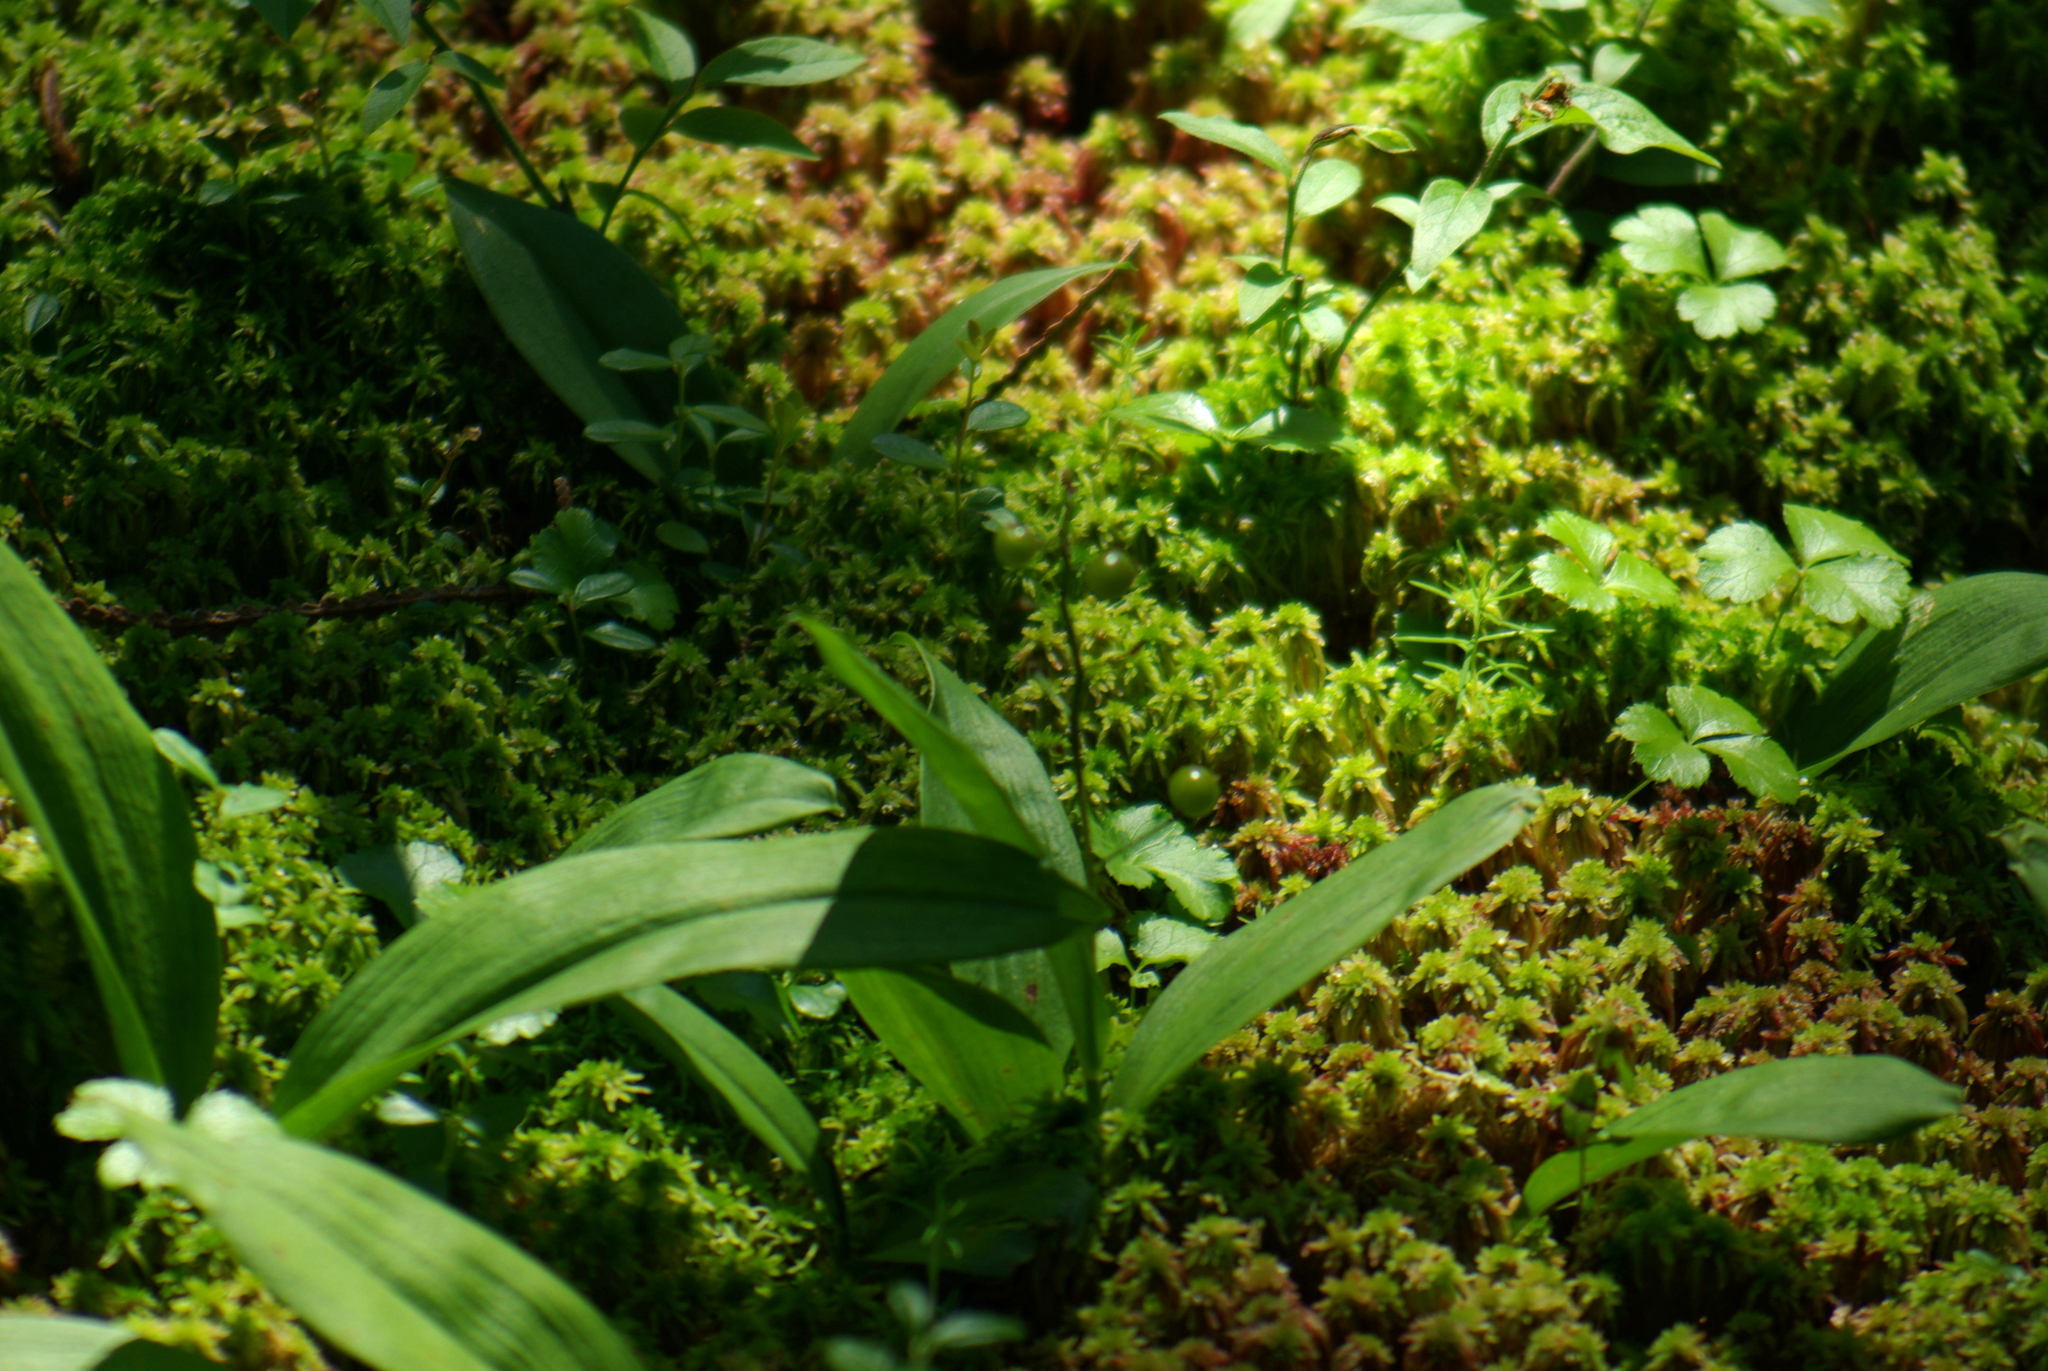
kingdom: Plantae
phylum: Tracheophyta
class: Liliopsida
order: Asparagales
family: Asparagaceae
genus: Maianthemum
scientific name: Maianthemum trifolium
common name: Swamp false solomon's seal
